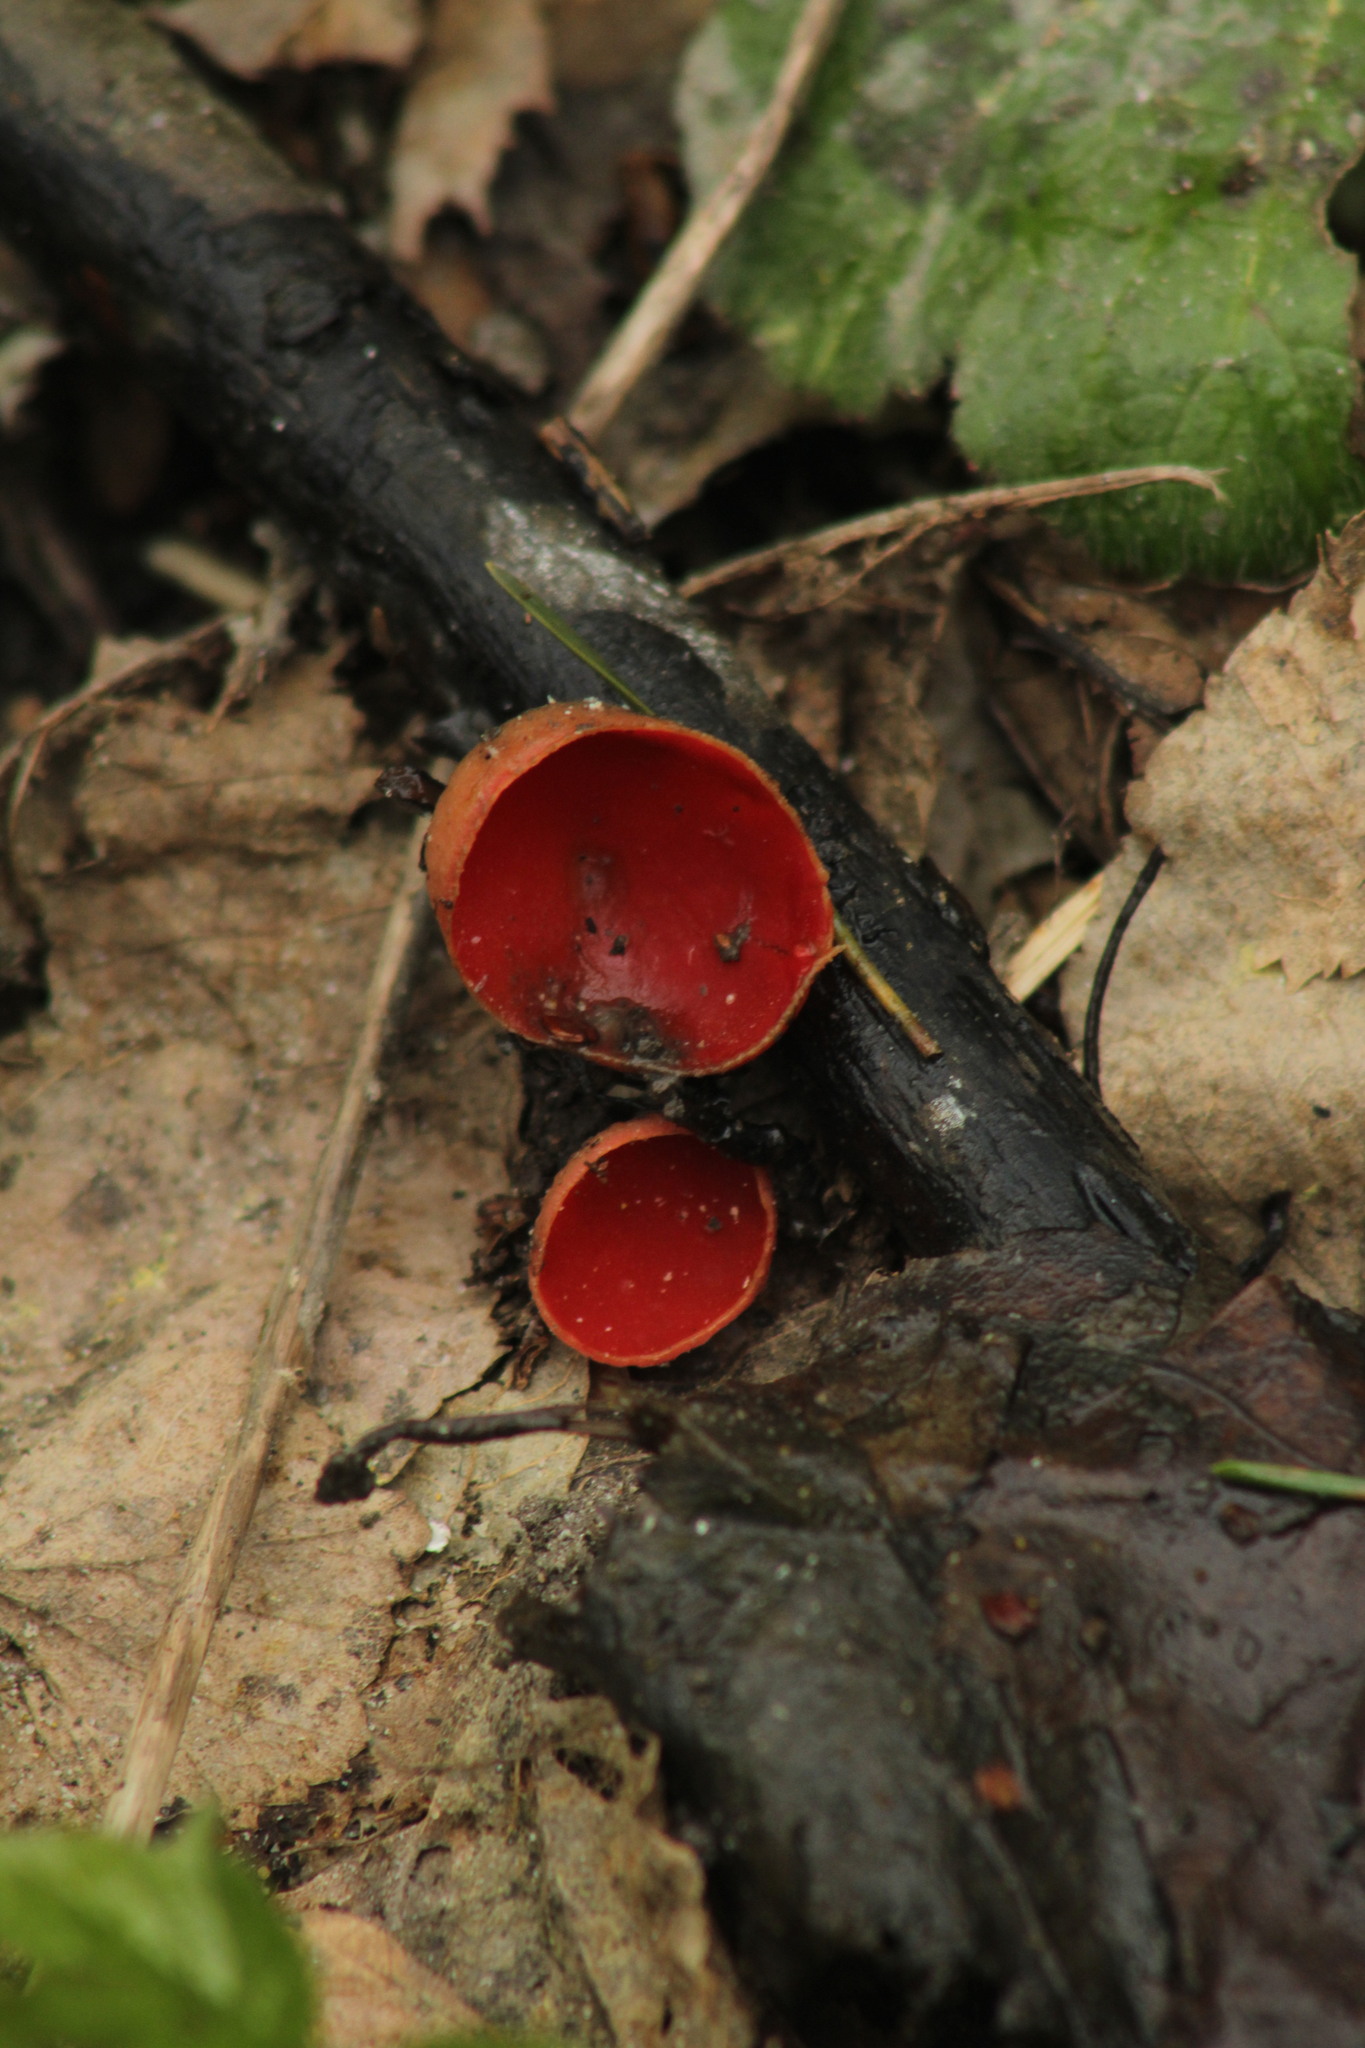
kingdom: Fungi
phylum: Ascomycota
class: Pezizomycetes
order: Pezizales
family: Sarcoscyphaceae
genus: Sarcoscypha
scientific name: Sarcoscypha austriaca
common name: Scarlet elfcup
